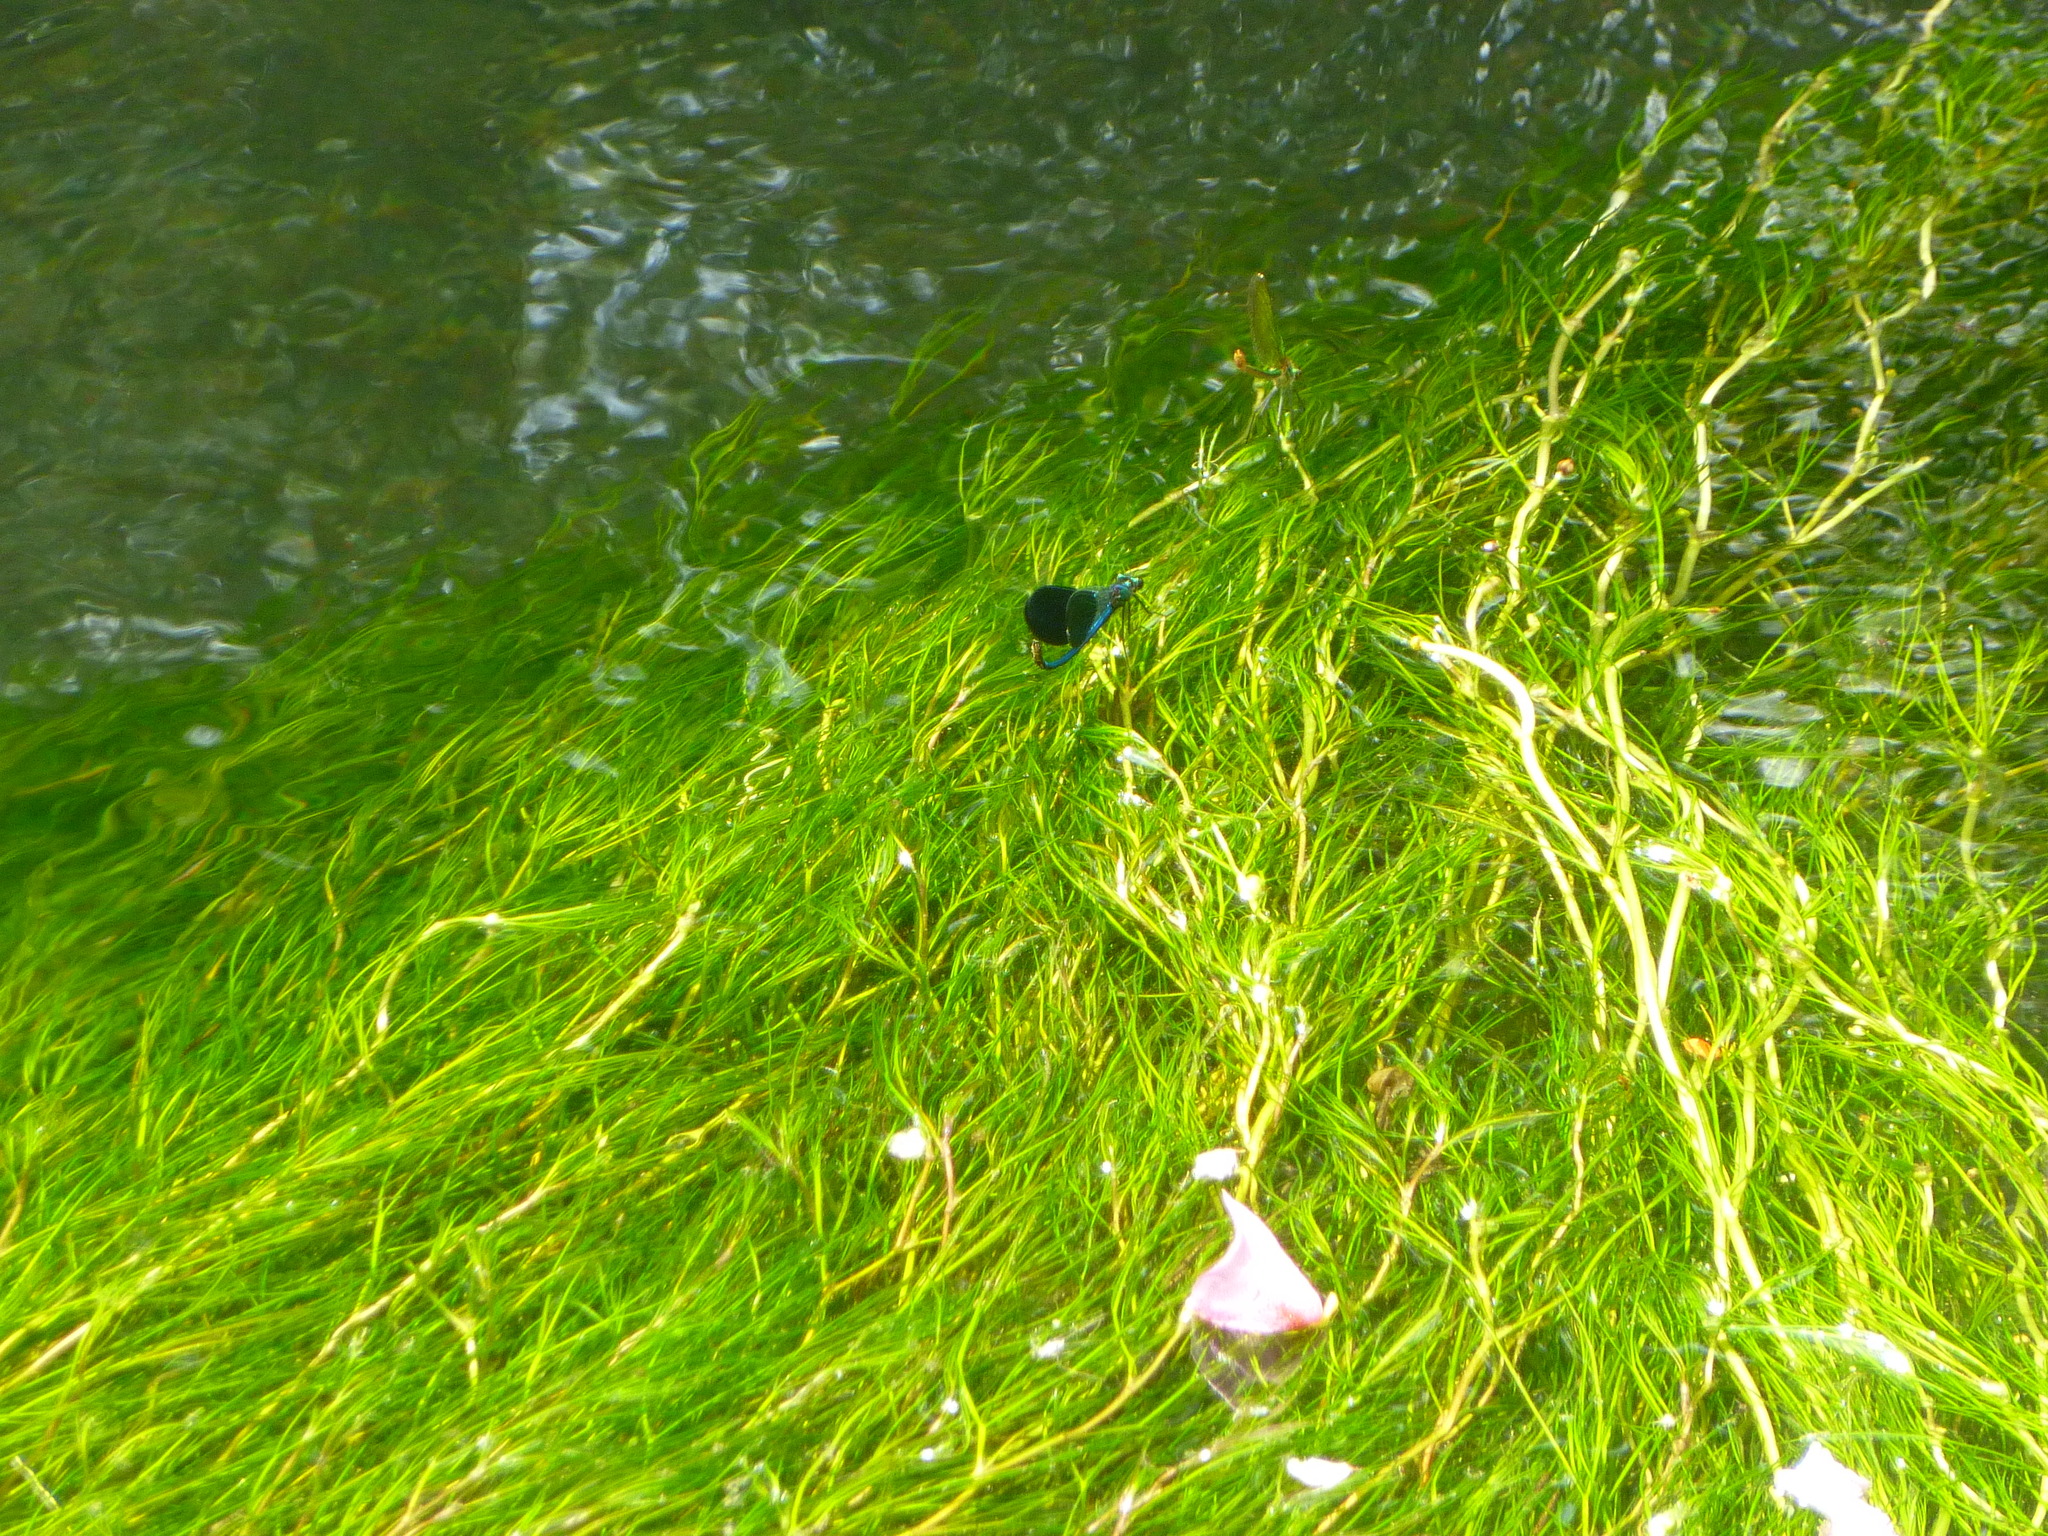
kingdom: Animalia
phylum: Arthropoda
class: Insecta
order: Odonata
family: Calopterygidae
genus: Calopteryx
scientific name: Calopteryx xanthostoma
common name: Western demoiselle
